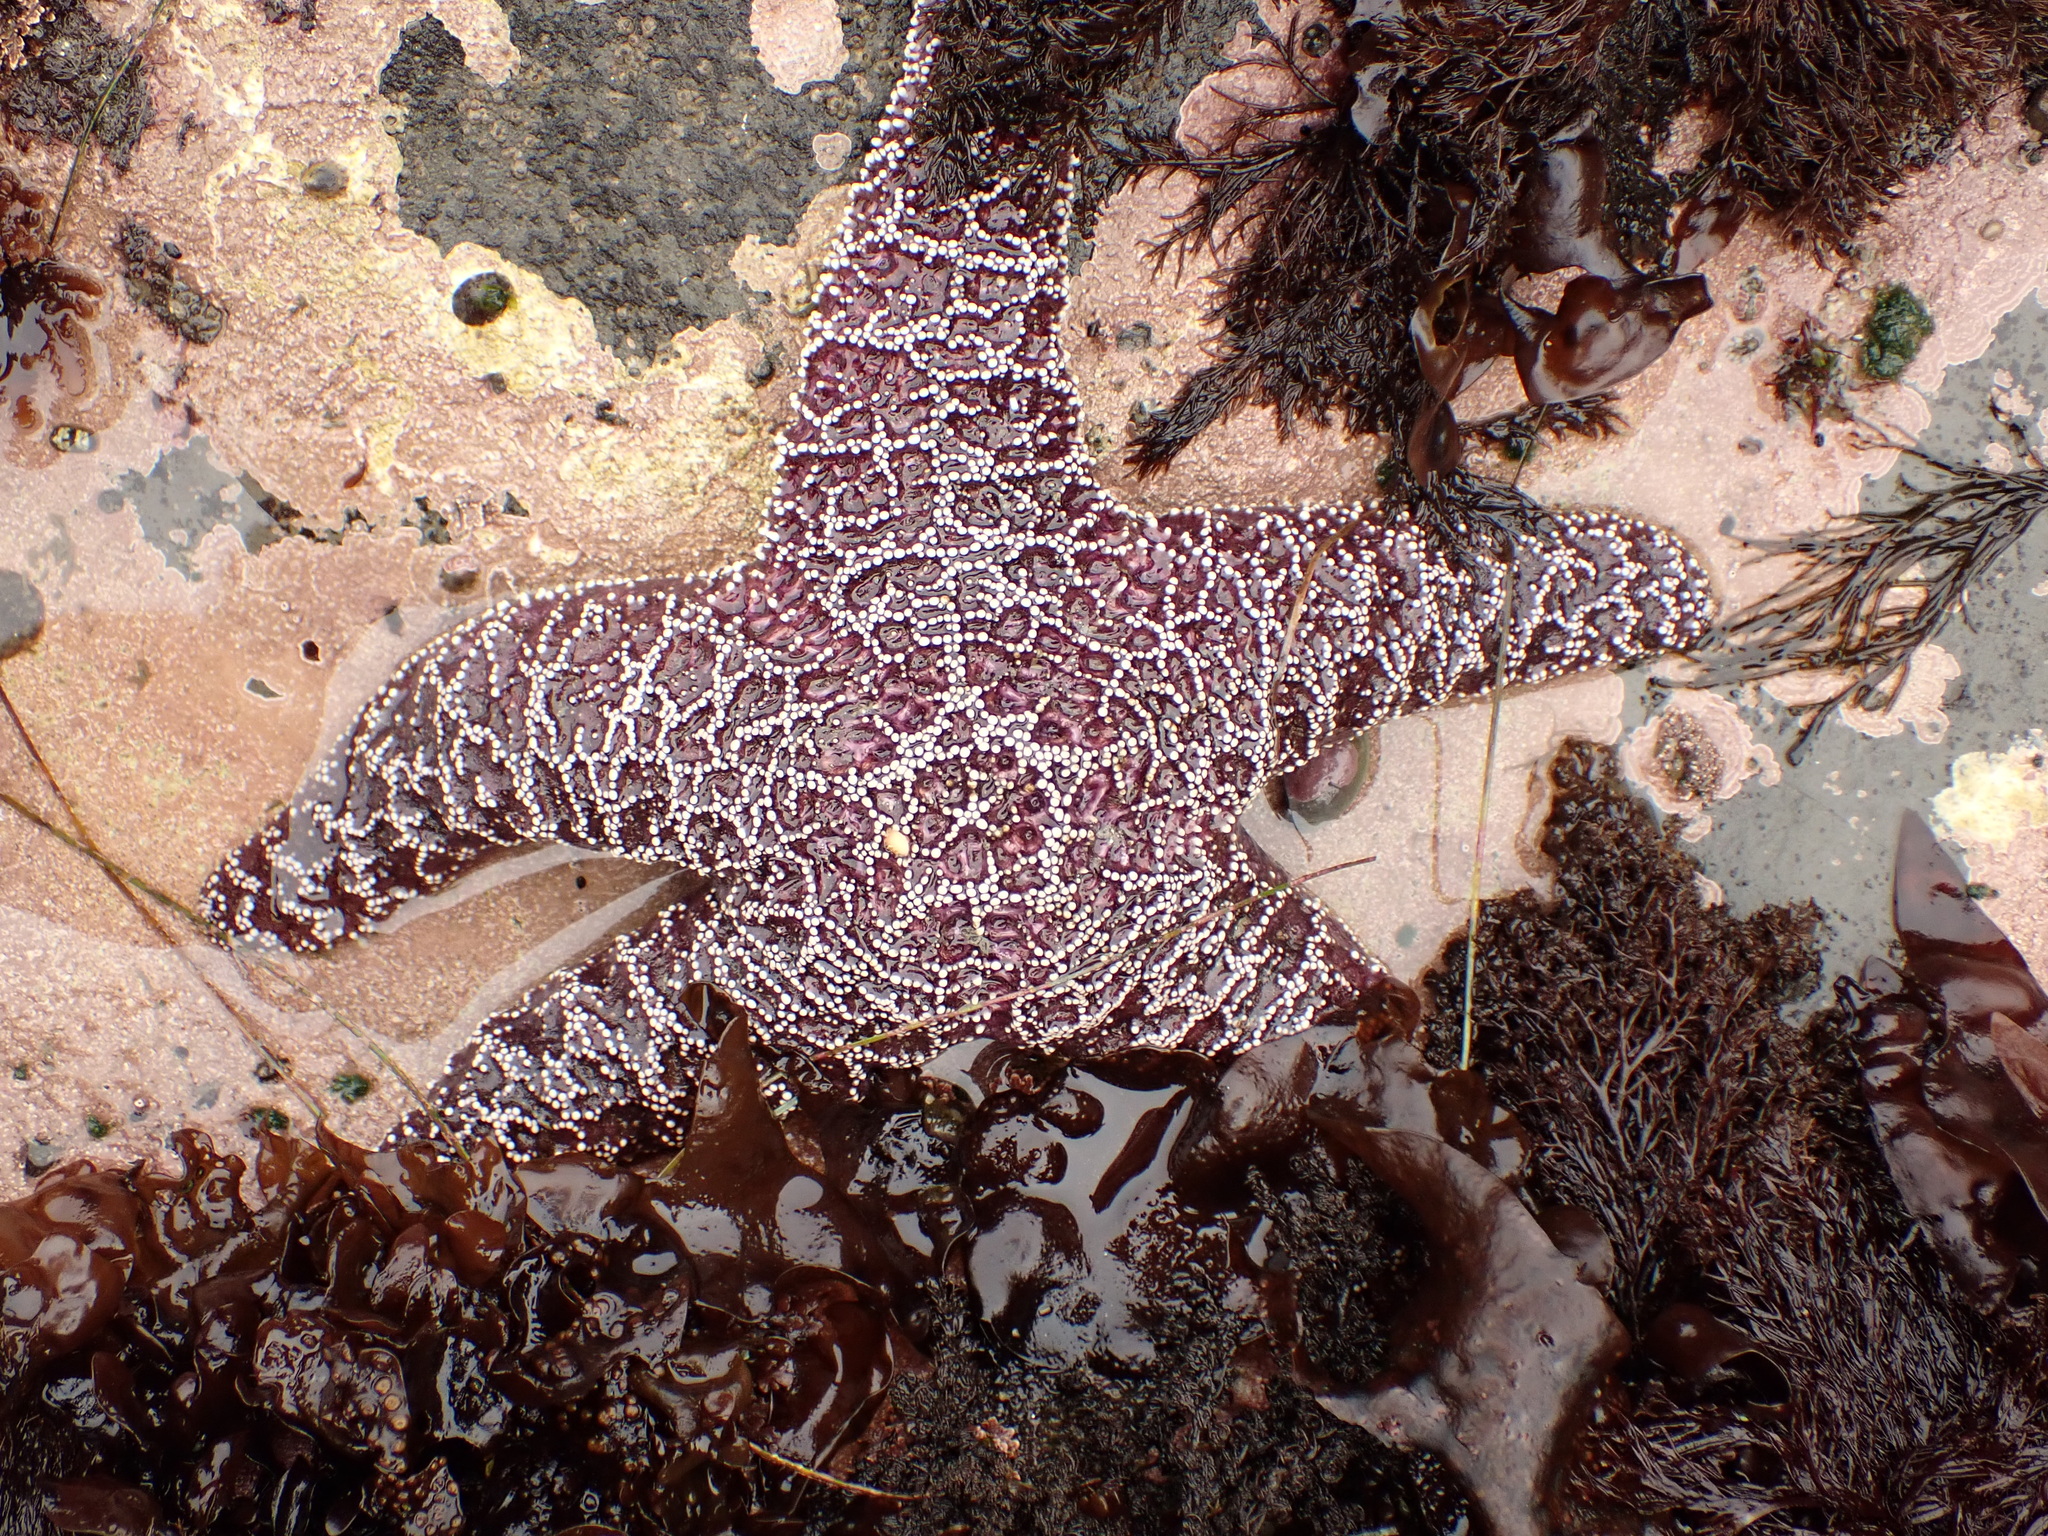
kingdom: Animalia
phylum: Echinodermata
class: Asteroidea
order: Forcipulatida
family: Asteriidae
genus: Pisaster
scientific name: Pisaster ochraceus
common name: Ochre stars
